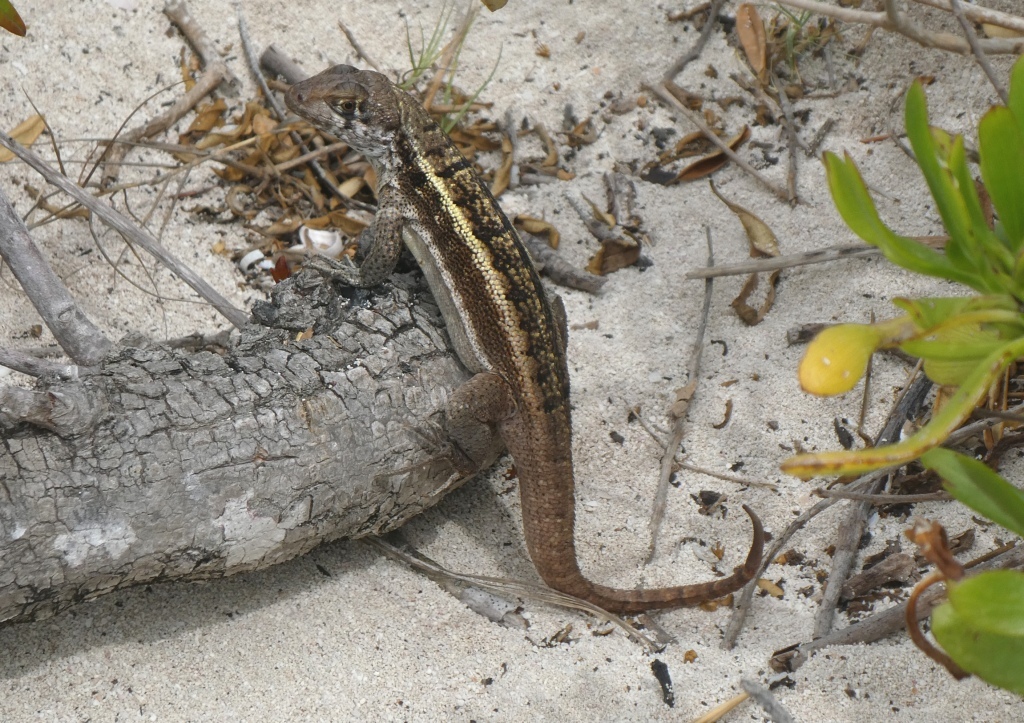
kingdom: Animalia
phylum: Chordata
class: Squamata
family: Leiocephalidae
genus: Leiocephalus
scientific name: Leiocephalus psammodromus
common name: Bastion cay curlytail lizard
